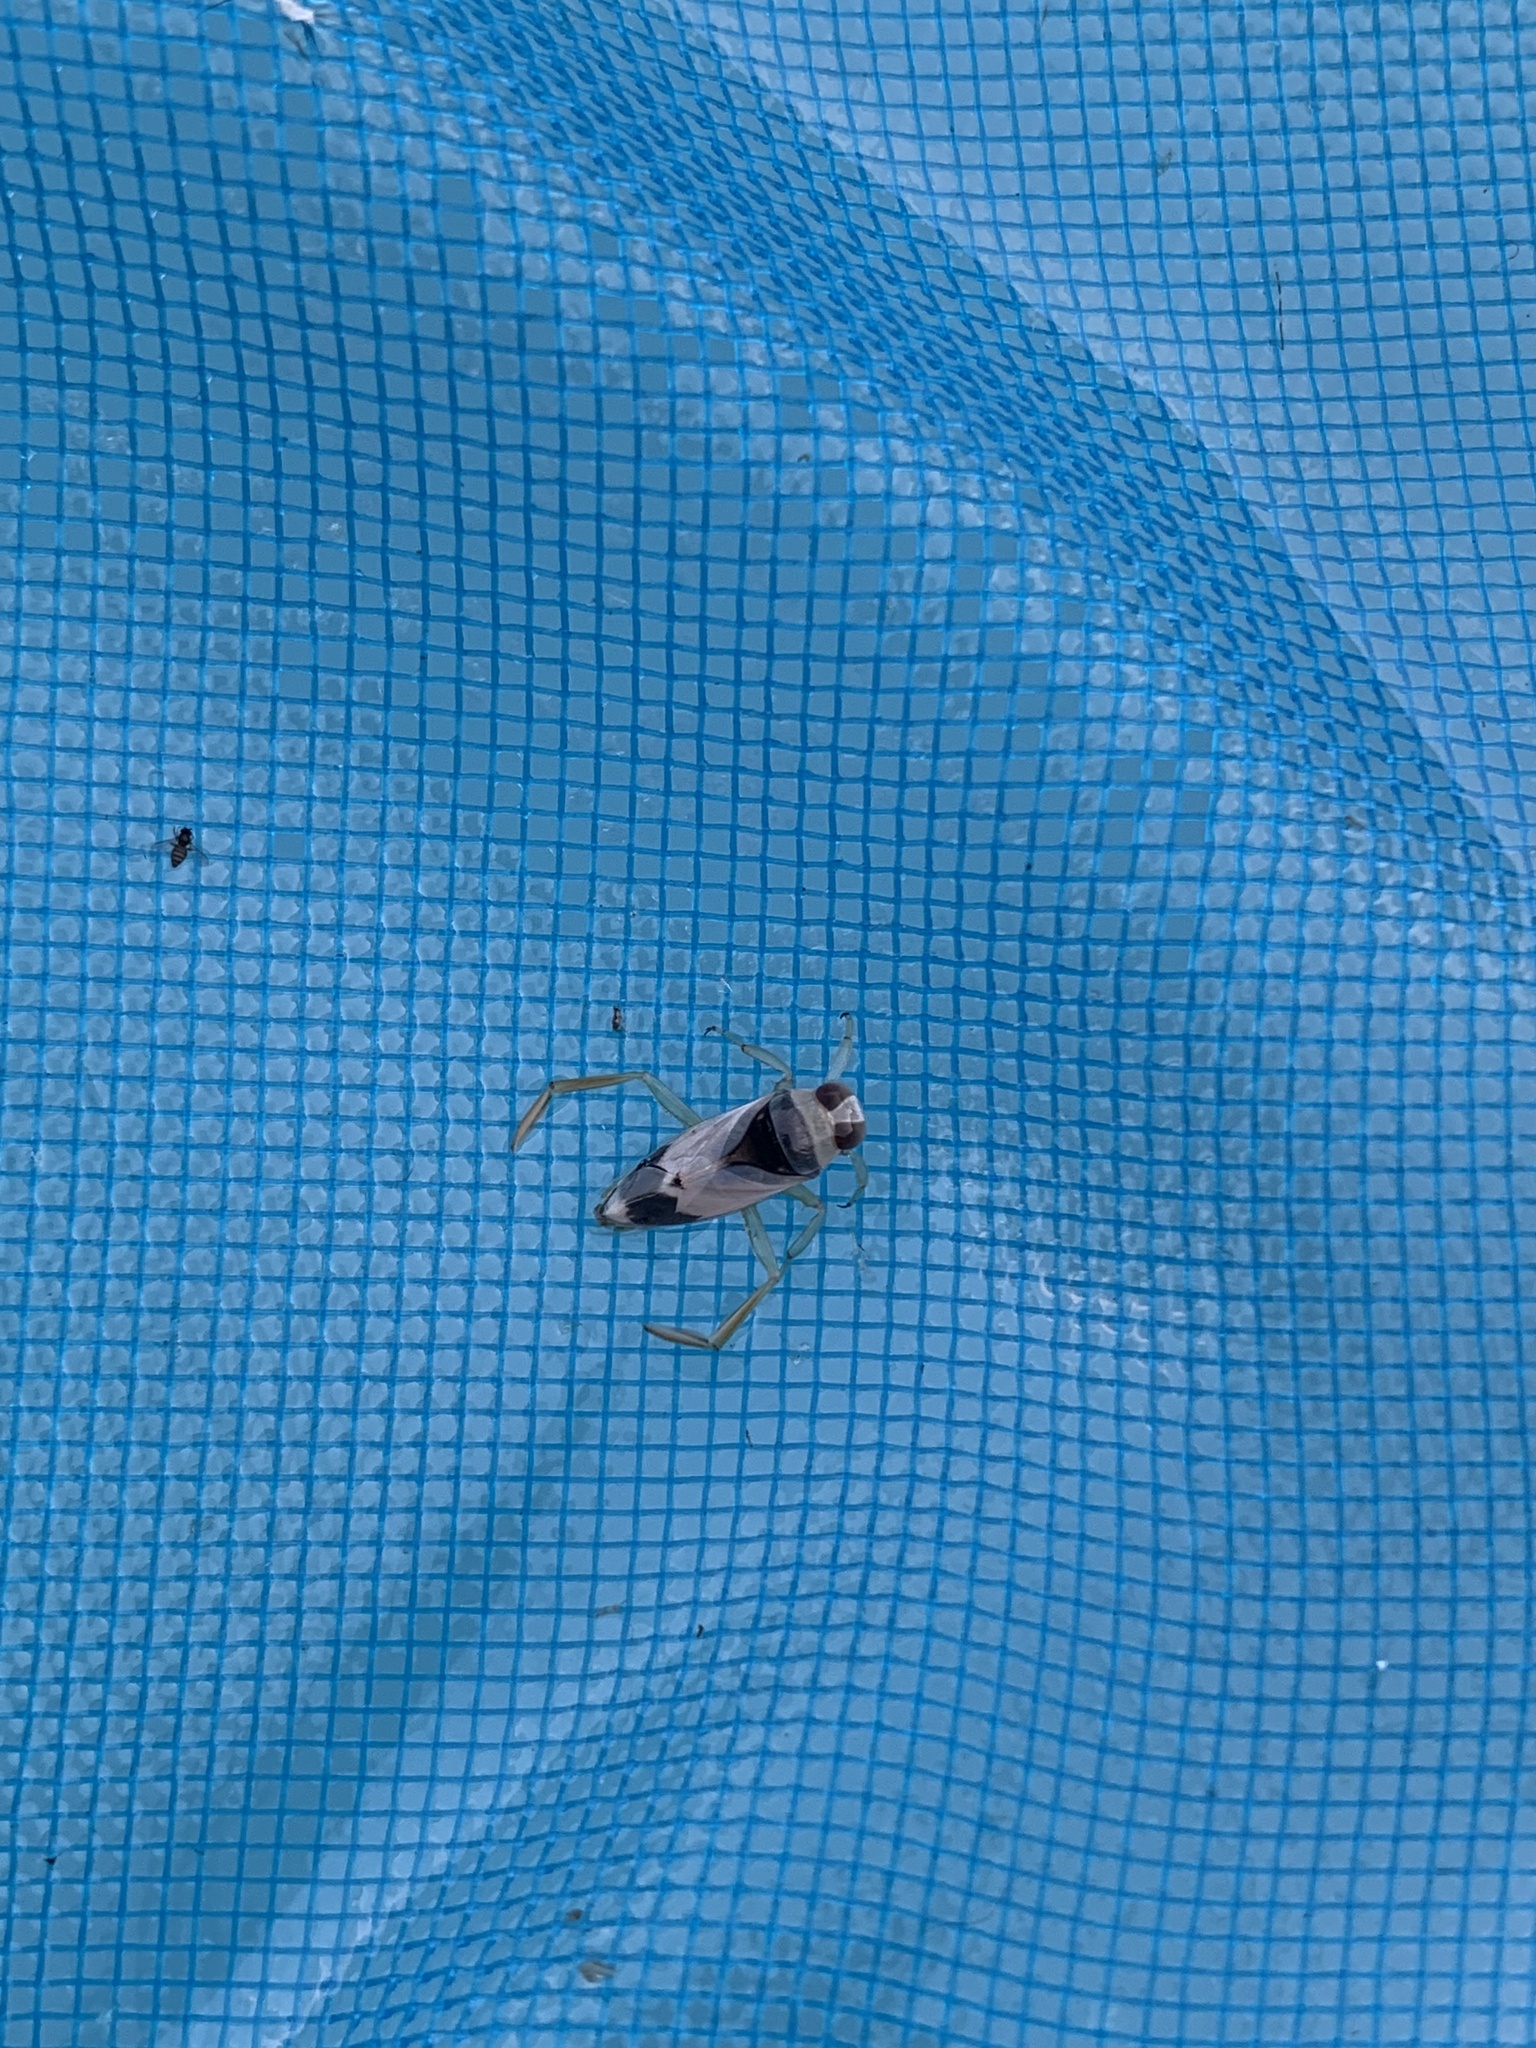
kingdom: Animalia
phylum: Arthropoda
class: Insecta
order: Hemiptera
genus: Paranecta
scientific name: Paranecta
